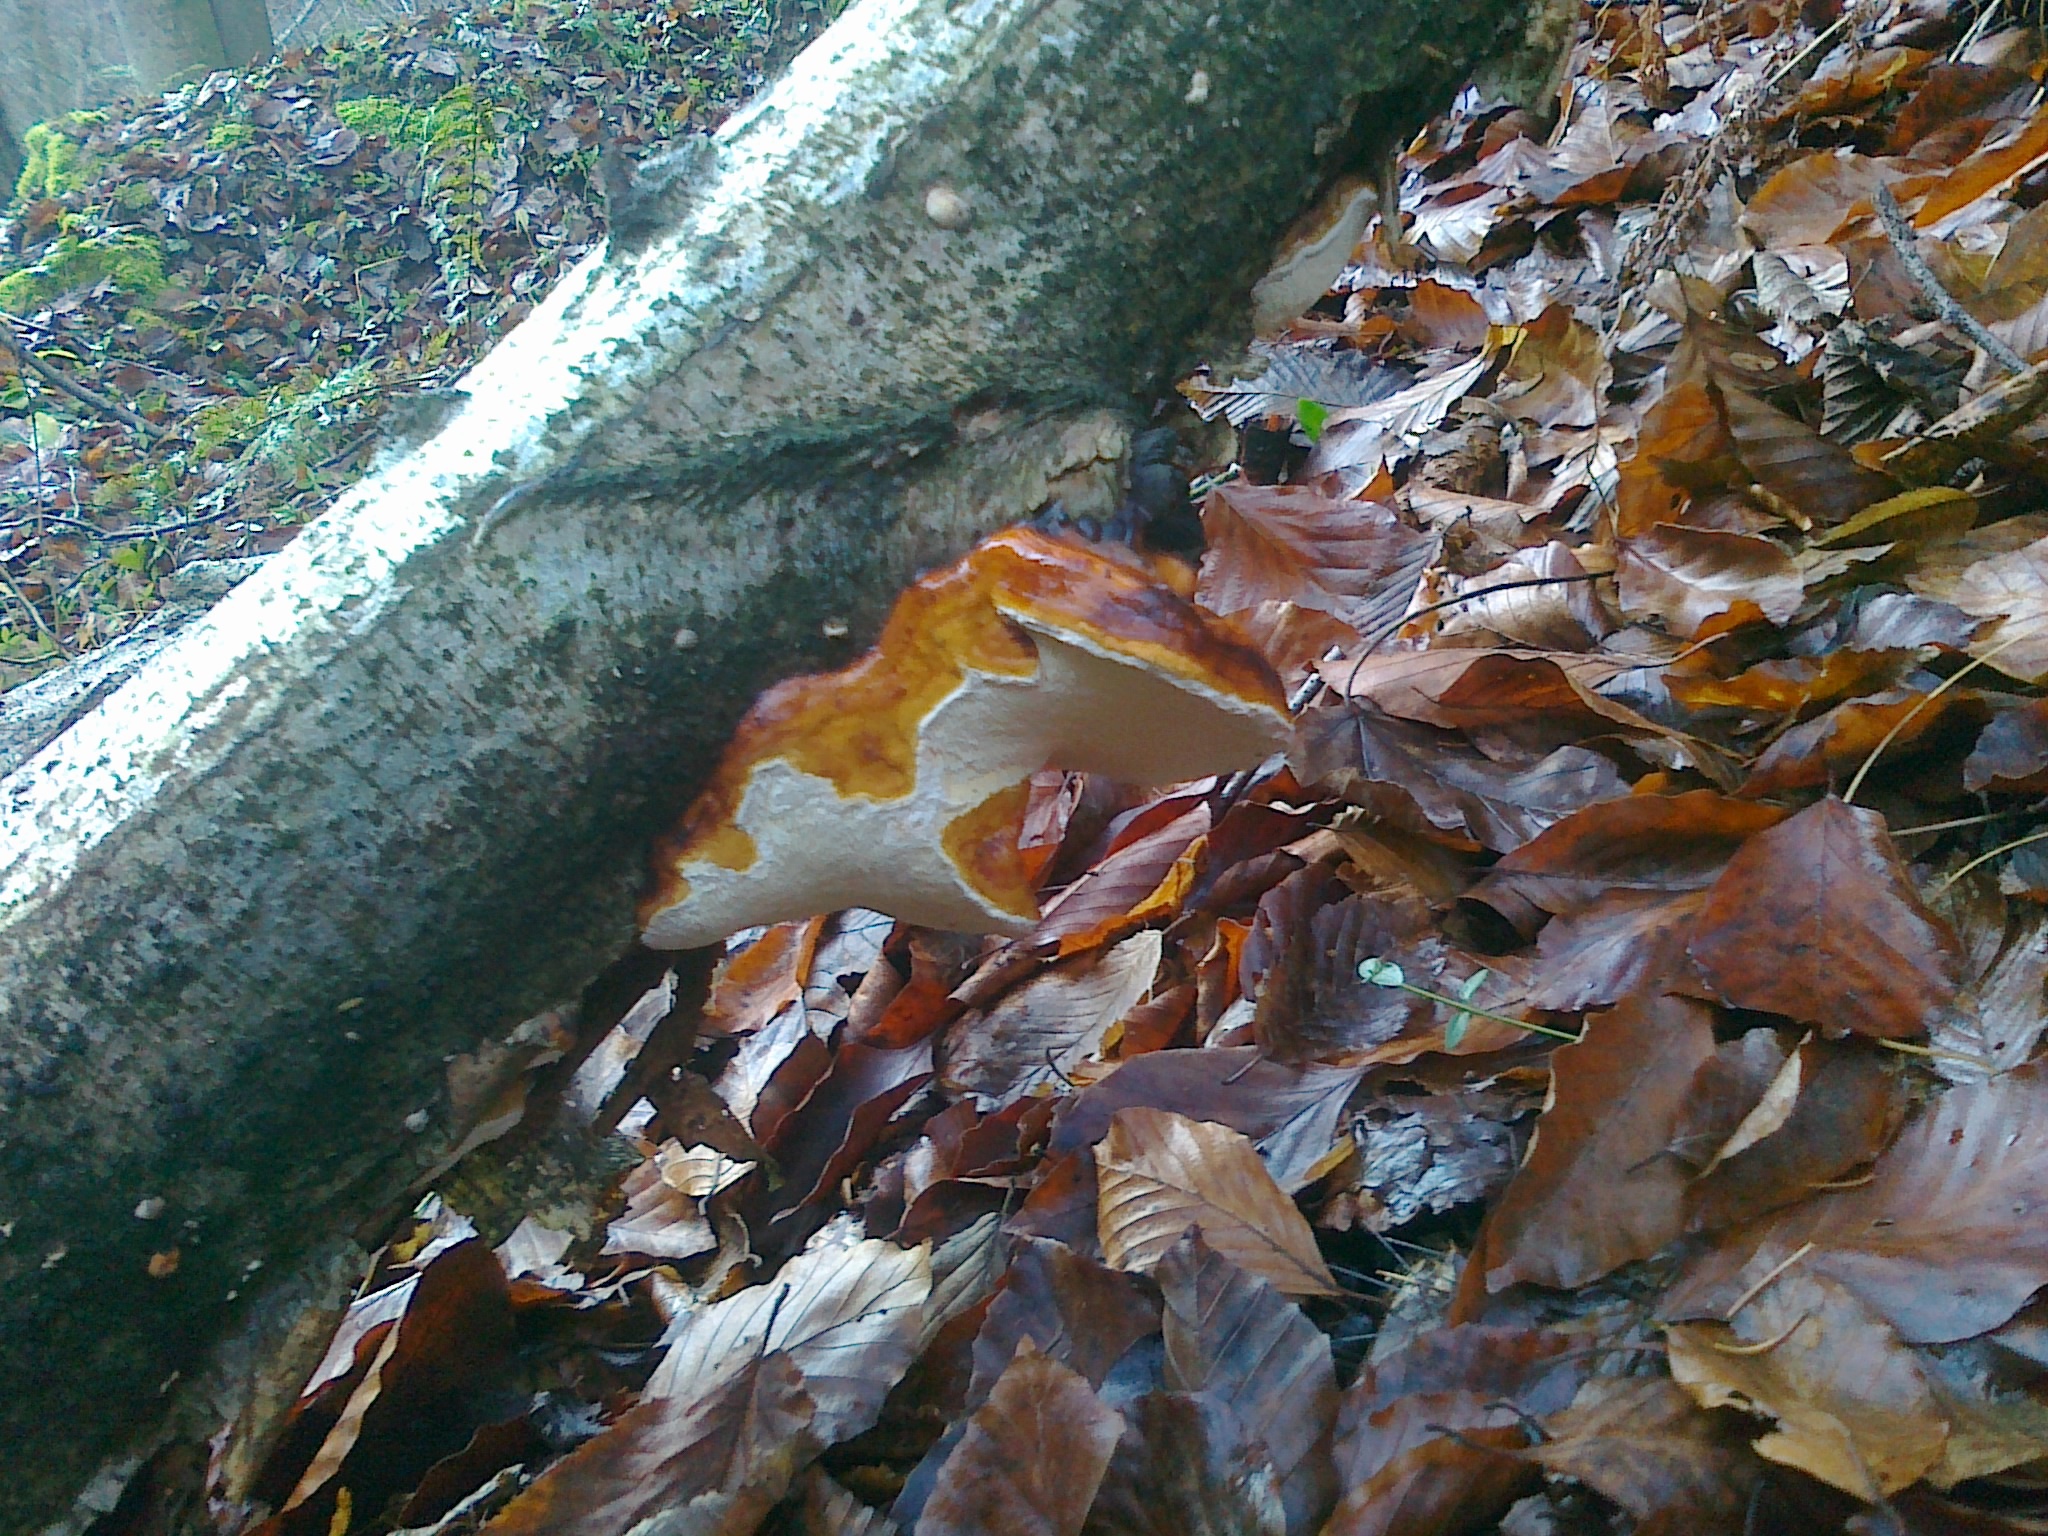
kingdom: Fungi
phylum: Basidiomycota
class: Agaricomycetes
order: Polyporales
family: Fomitopsidaceae
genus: Fomitopsis
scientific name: Fomitopsis pinicola
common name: Red-belted bracket
